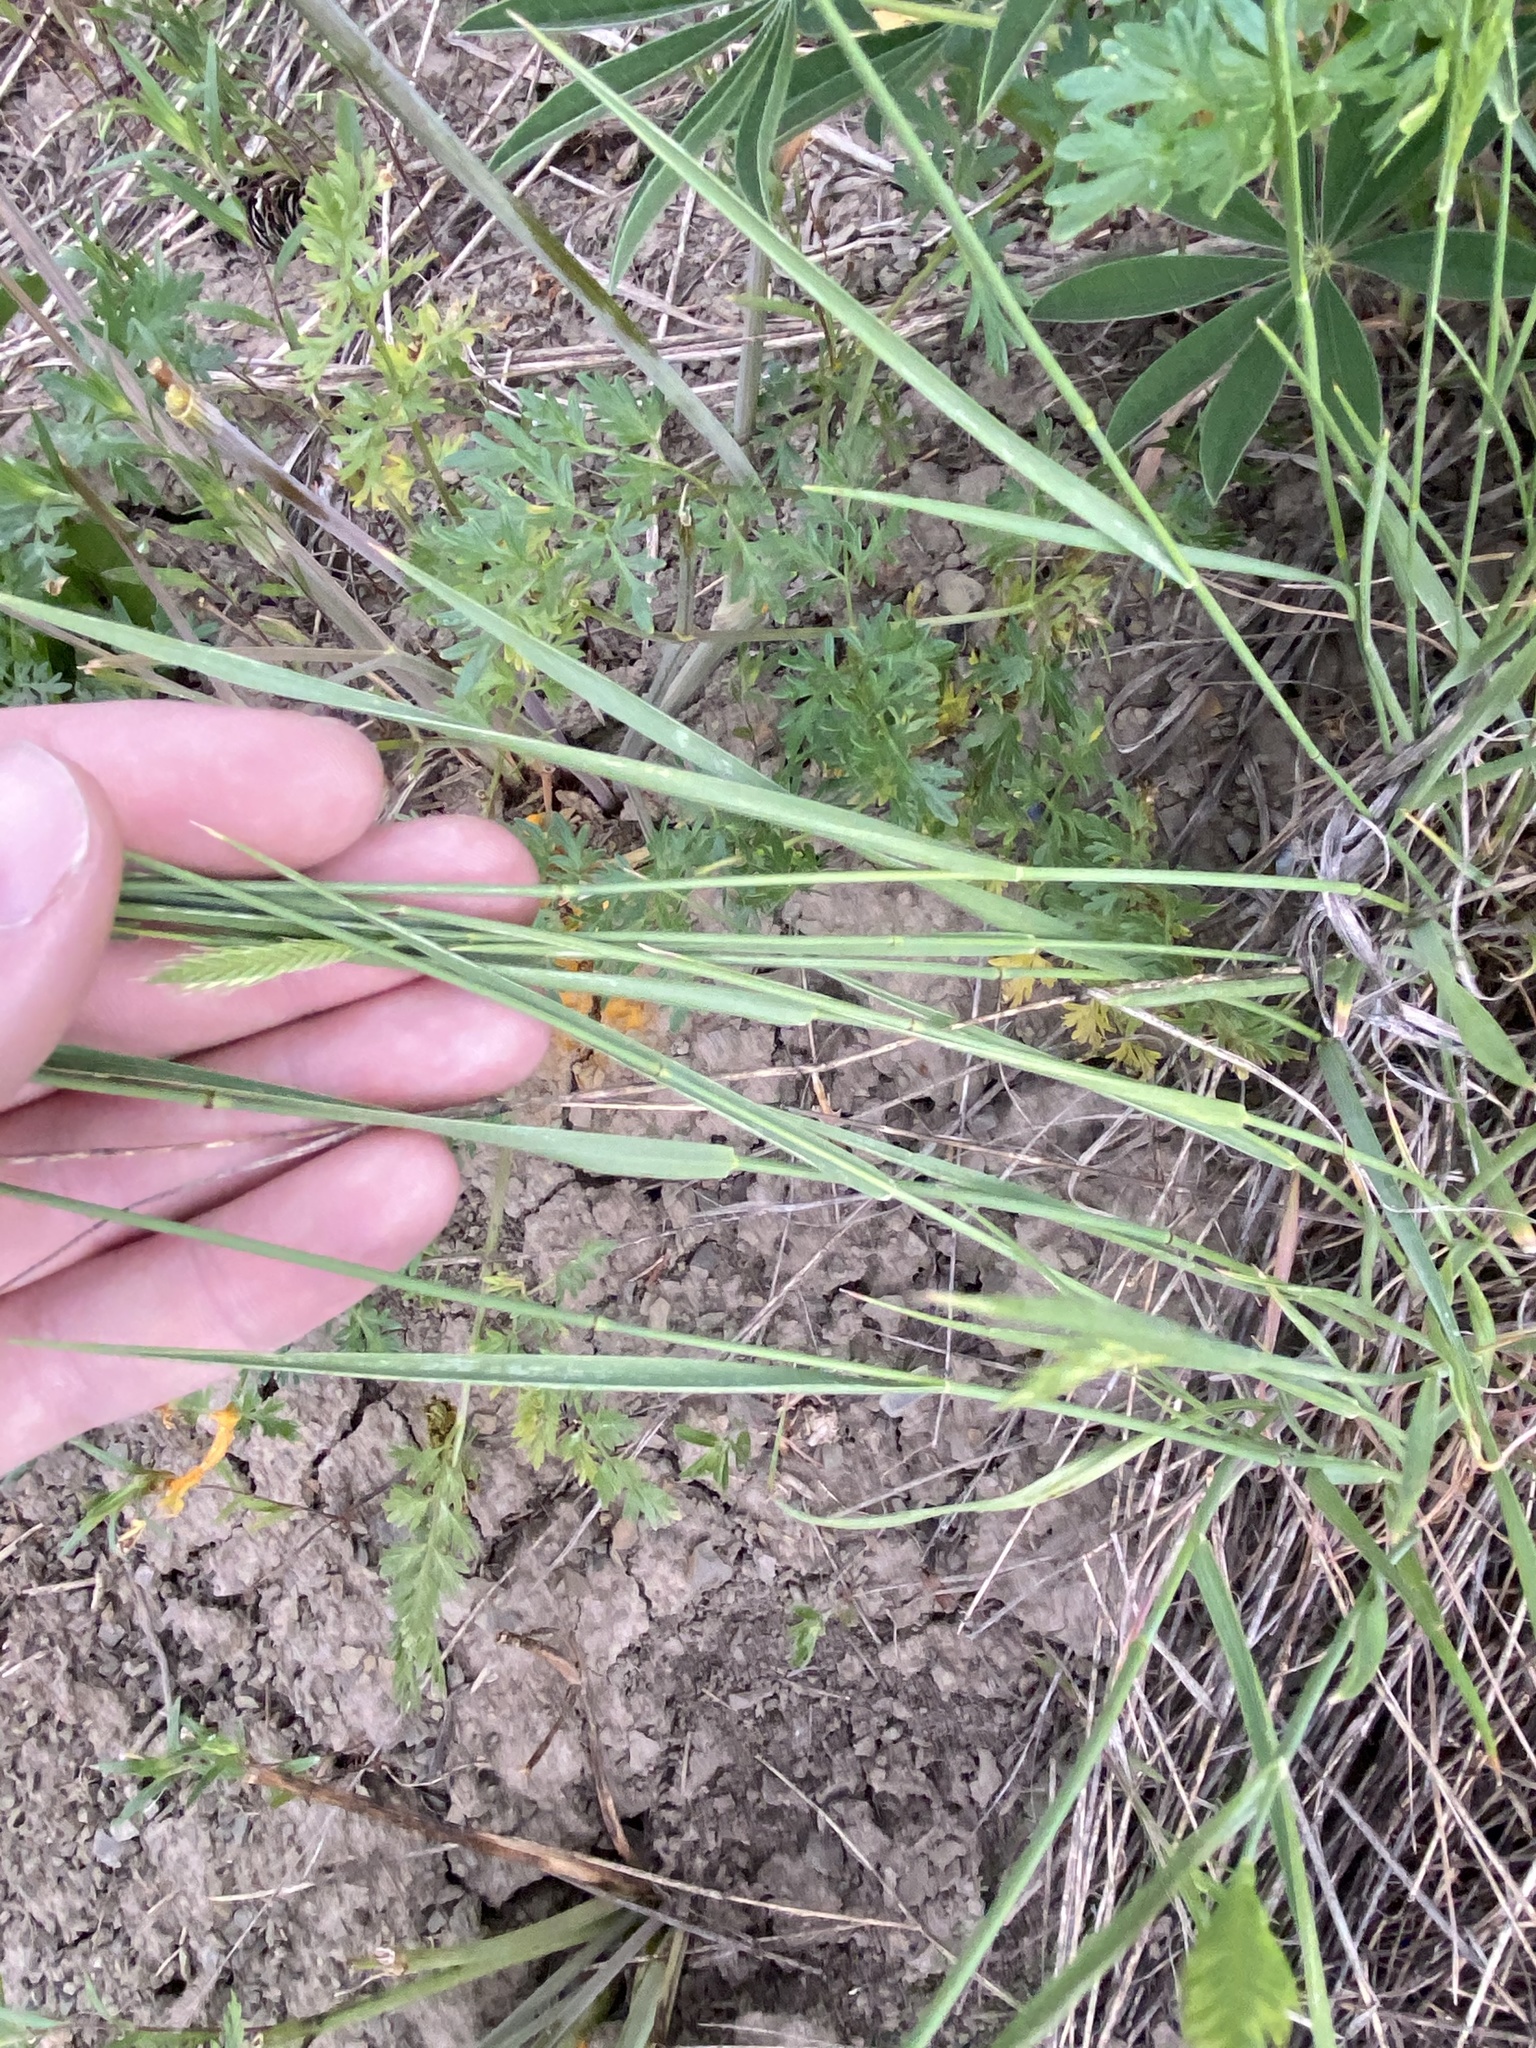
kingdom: Plantae
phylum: Tracheophyta
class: Liliopsida
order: Poales
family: Poaceae
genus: Agropyron
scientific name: Agropyron cristatum
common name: Crested wheatgrass
